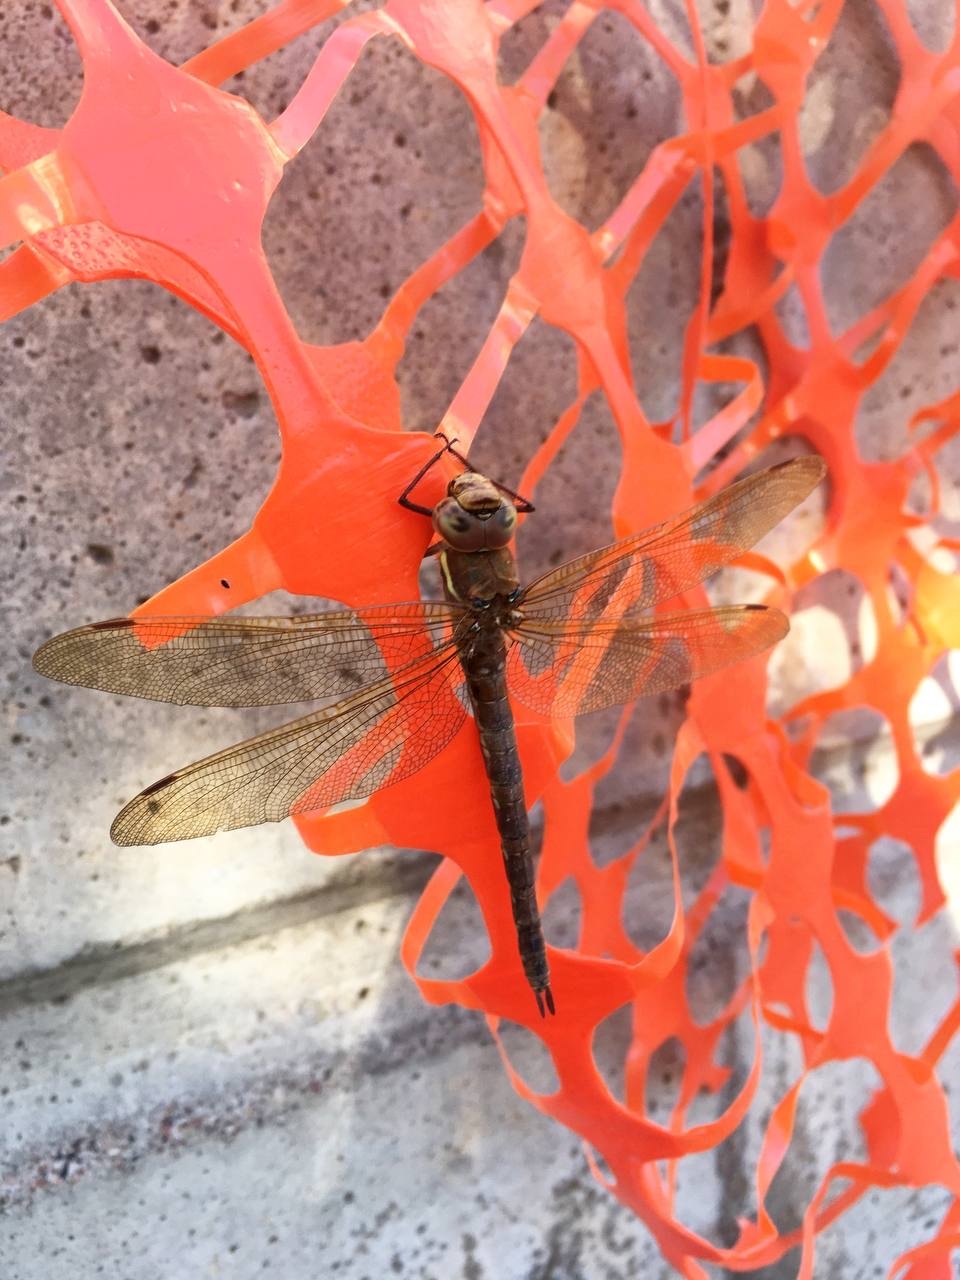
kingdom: Animalia
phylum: Arthropoda
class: Insecta
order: Odonata
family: Aeshnidae
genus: Aeshna
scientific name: Aeshna grandis
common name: Brown hawker
